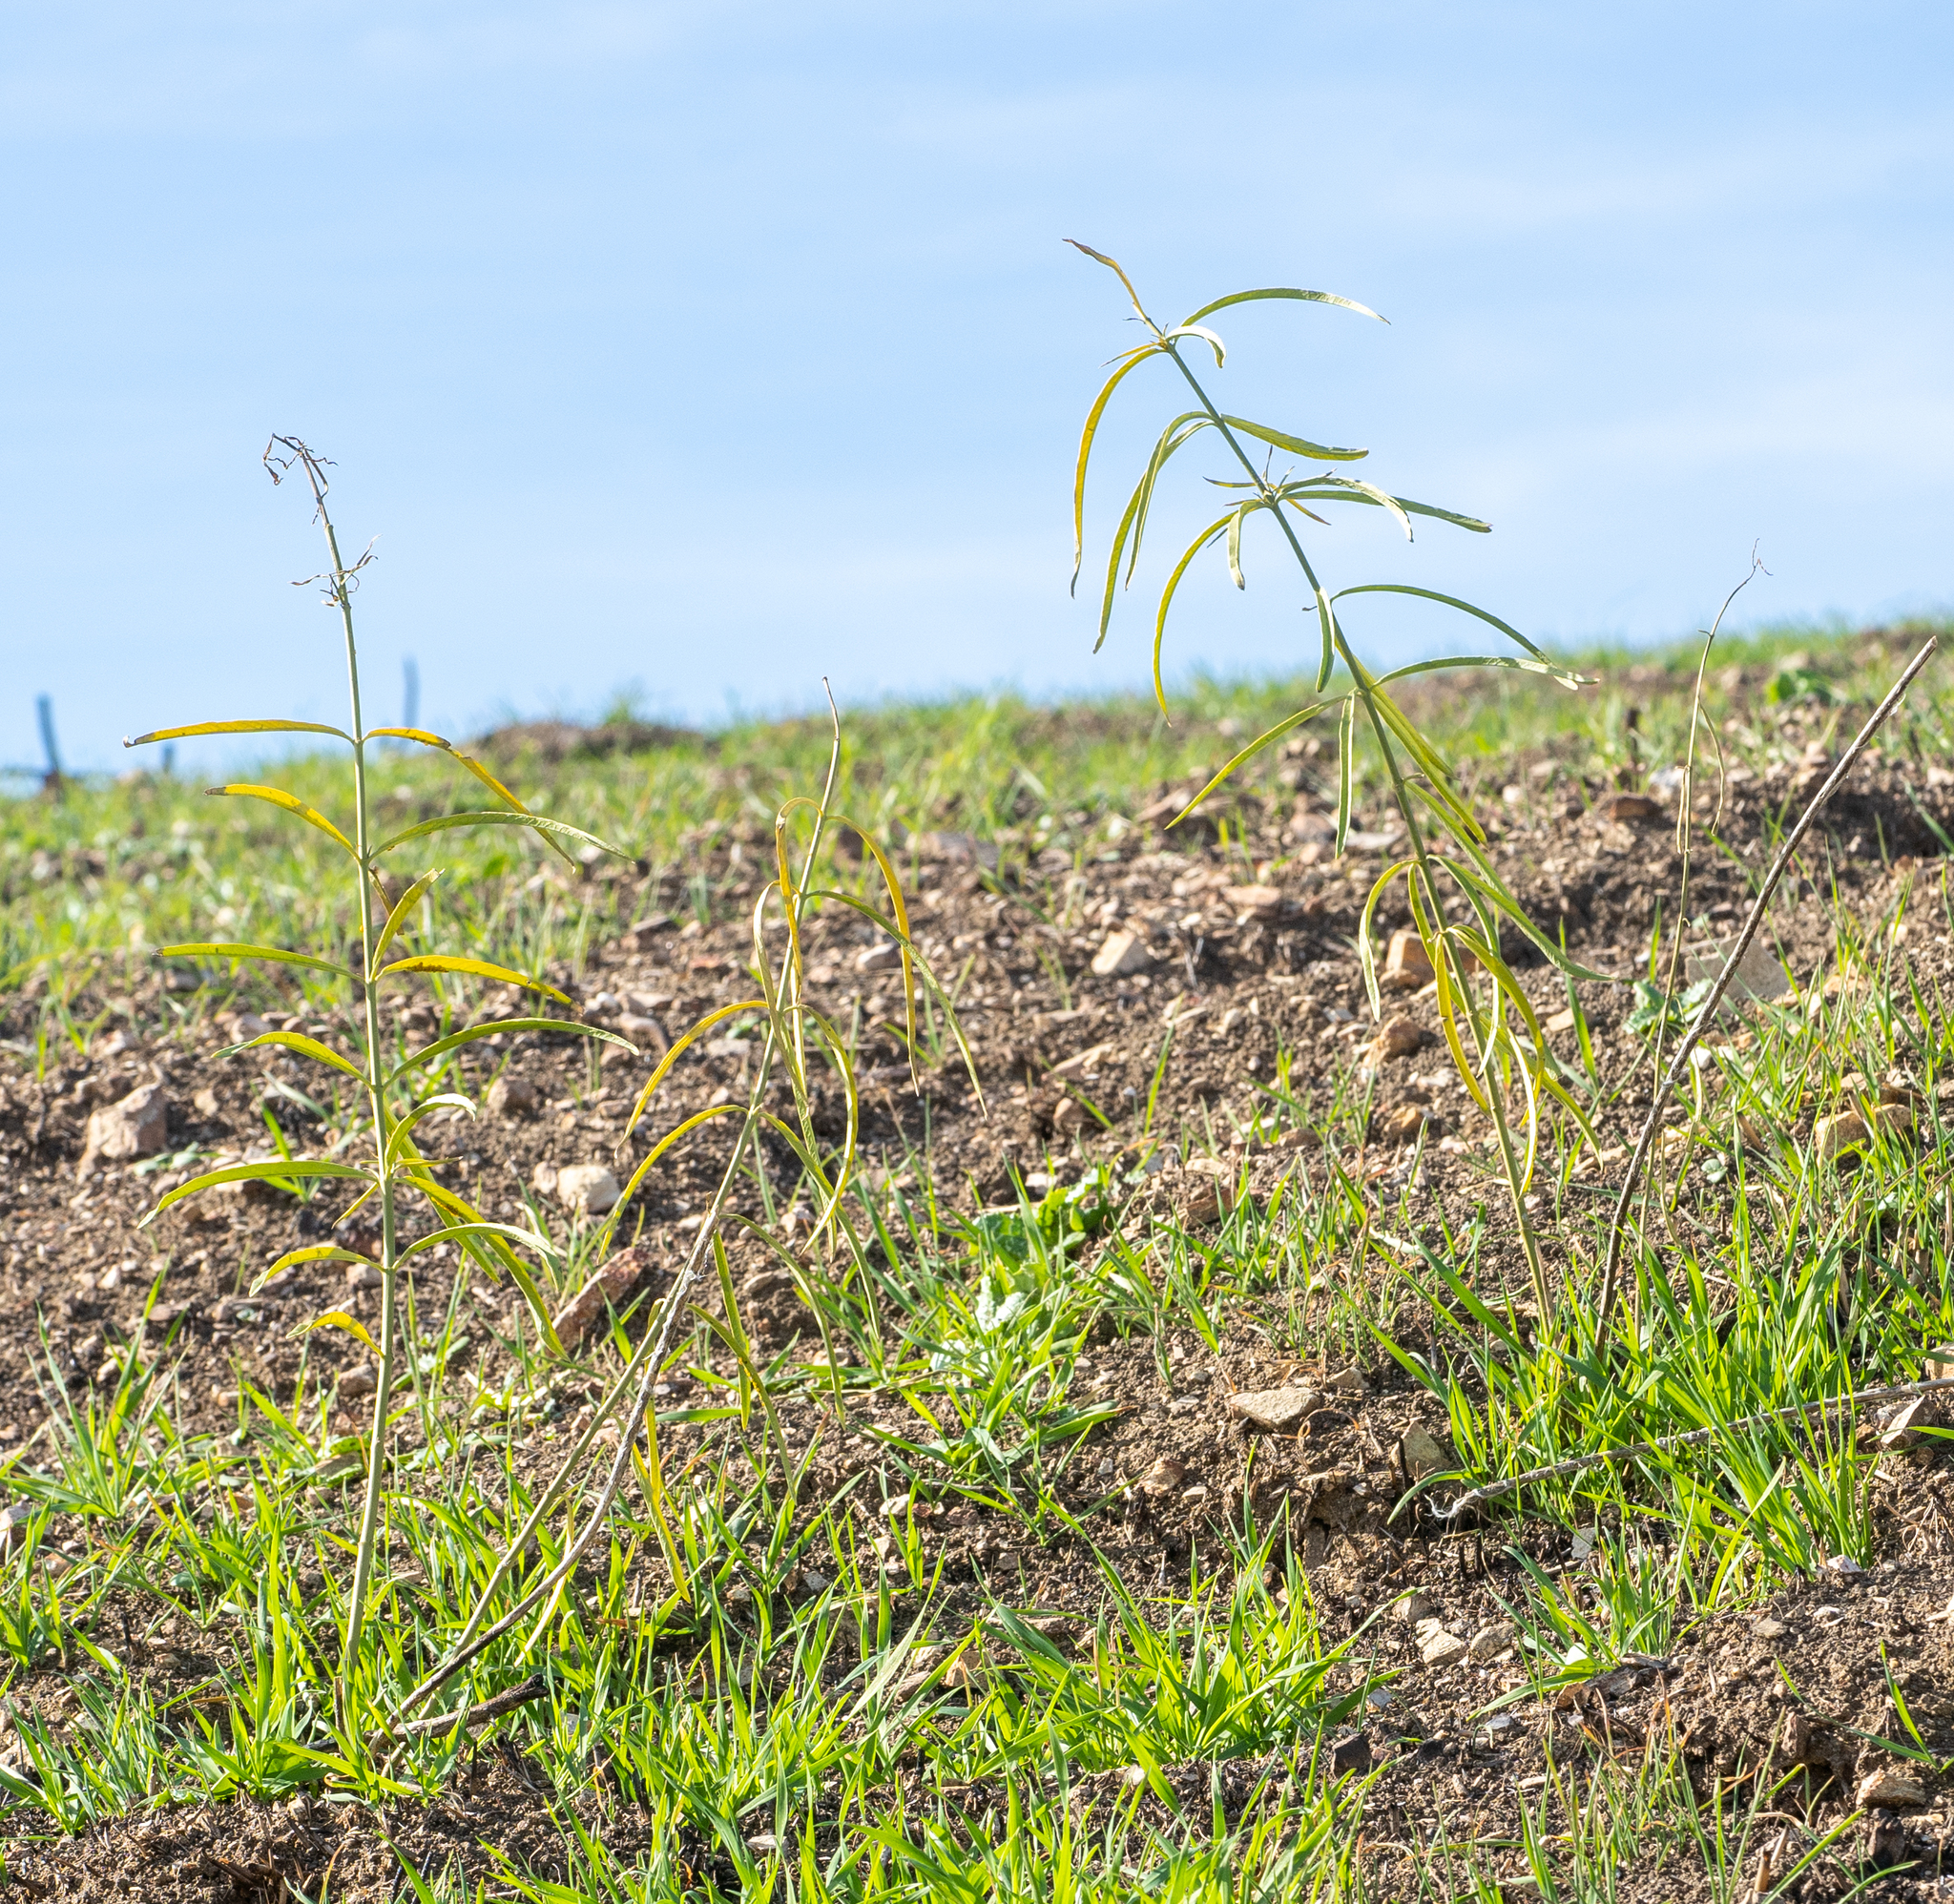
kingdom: Plantae
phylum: Tracheophyta
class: Magnoliopsida
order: Gentianales
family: Apocynaceae
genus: Asclepias
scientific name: Asclepias fascicularis
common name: Mexican milkweed
